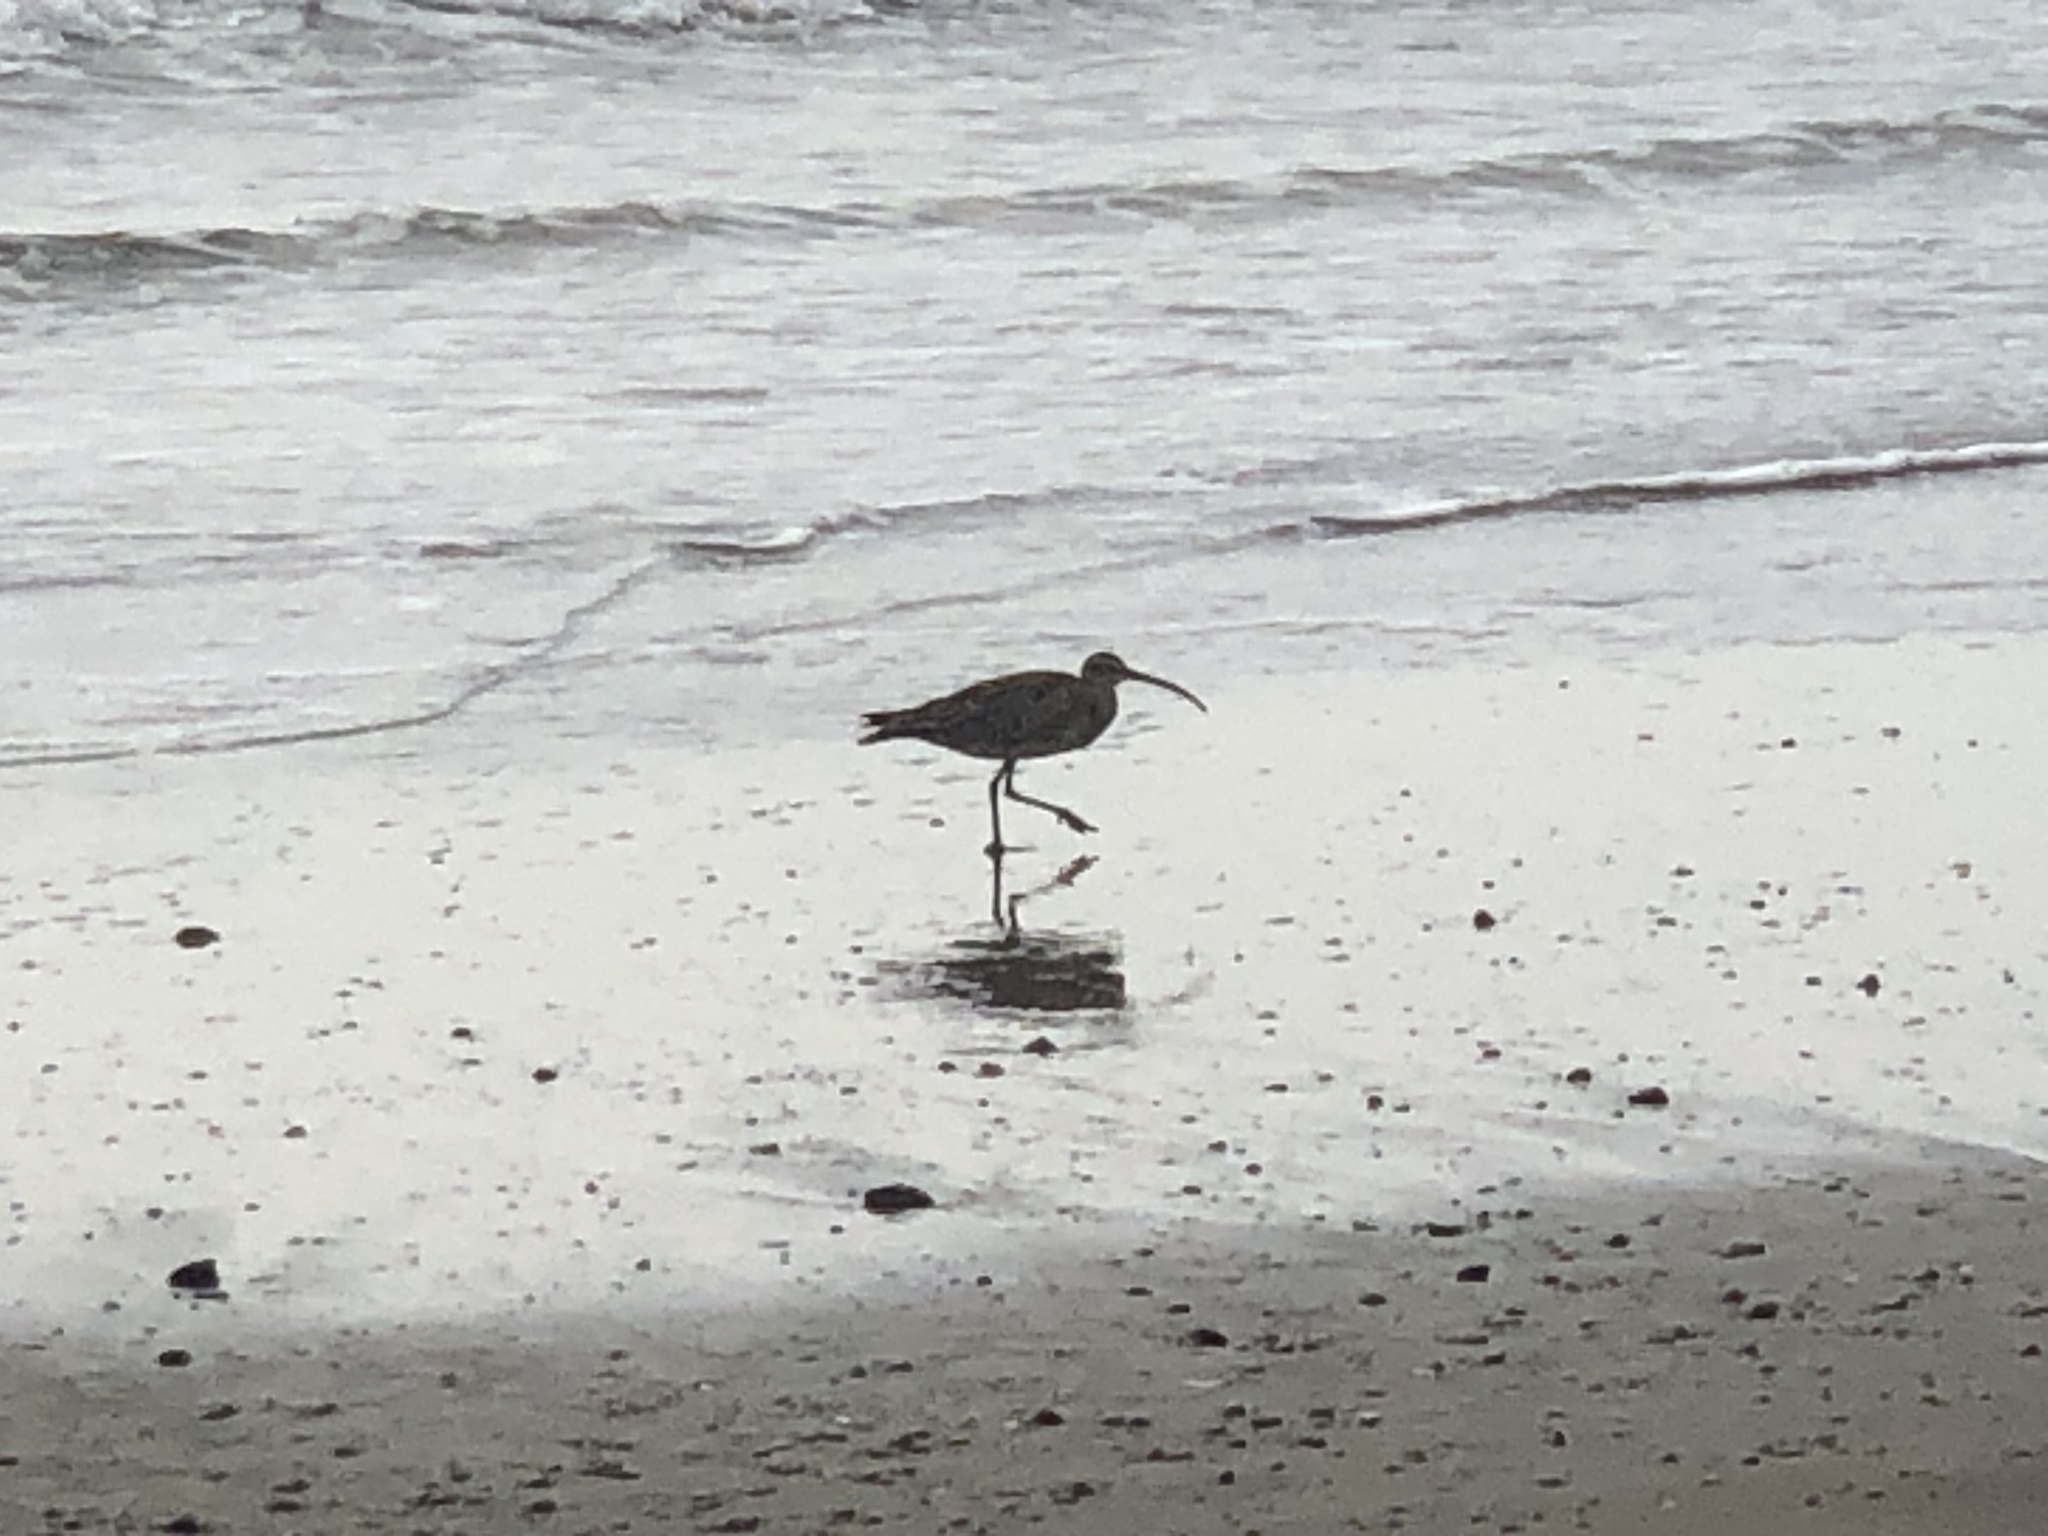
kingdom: Animalia
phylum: Chordata
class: Aves
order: Charadriiformes
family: Scolopacidae
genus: Numenius
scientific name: Numenius phaeopus
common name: Whimbrel
